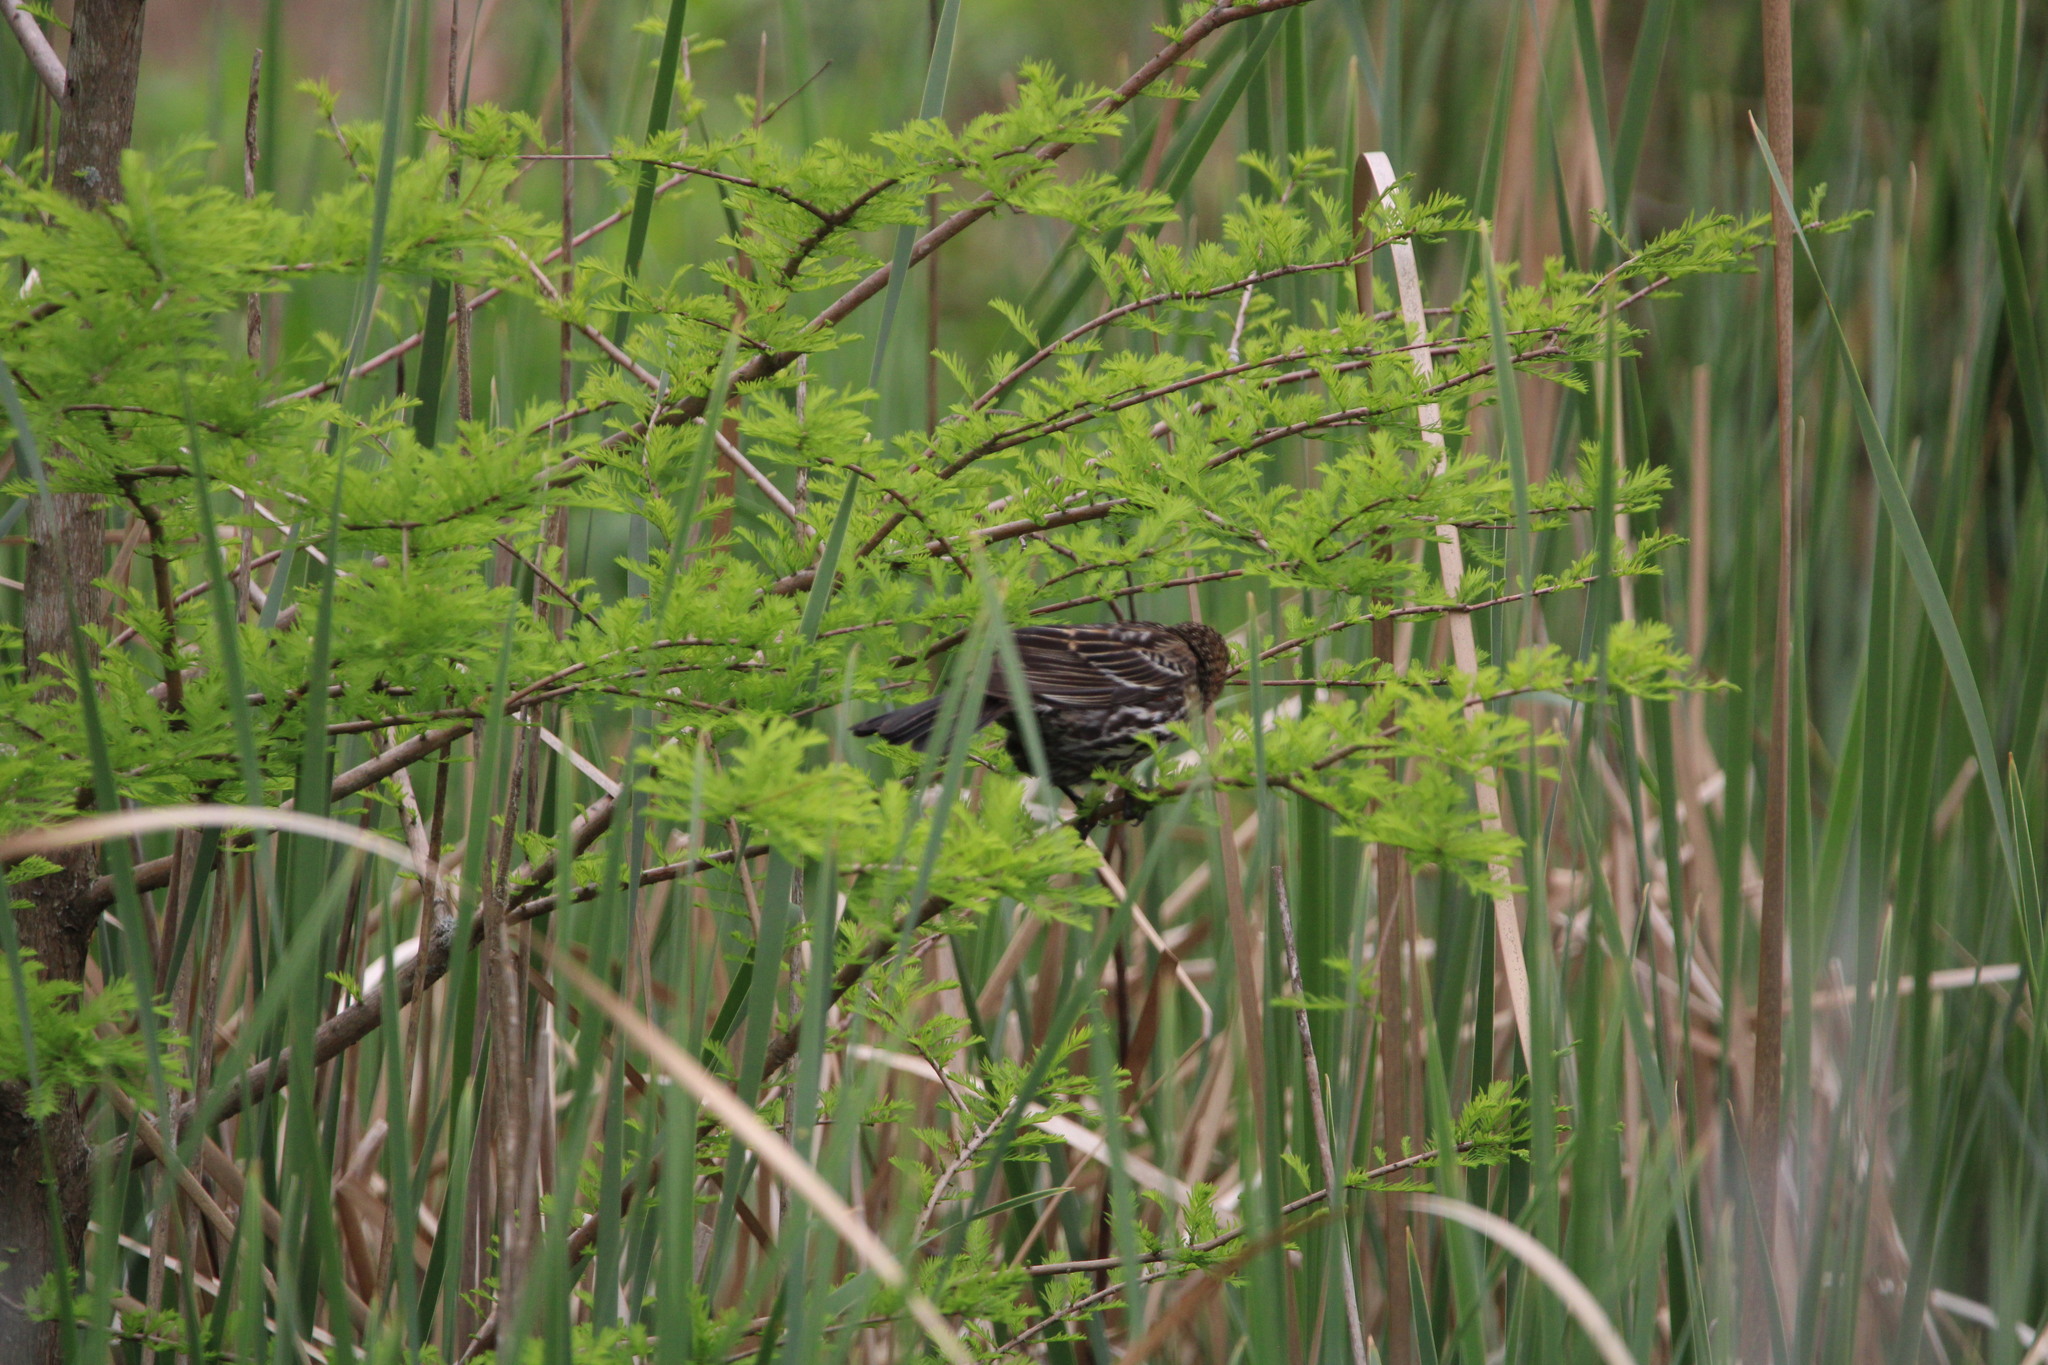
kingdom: Animalia
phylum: Chordata
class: Aves
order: Passeriformes
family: Icteridae
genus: Agelaius
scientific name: Agelaius phoeniceus
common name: Red-winged blackbird
